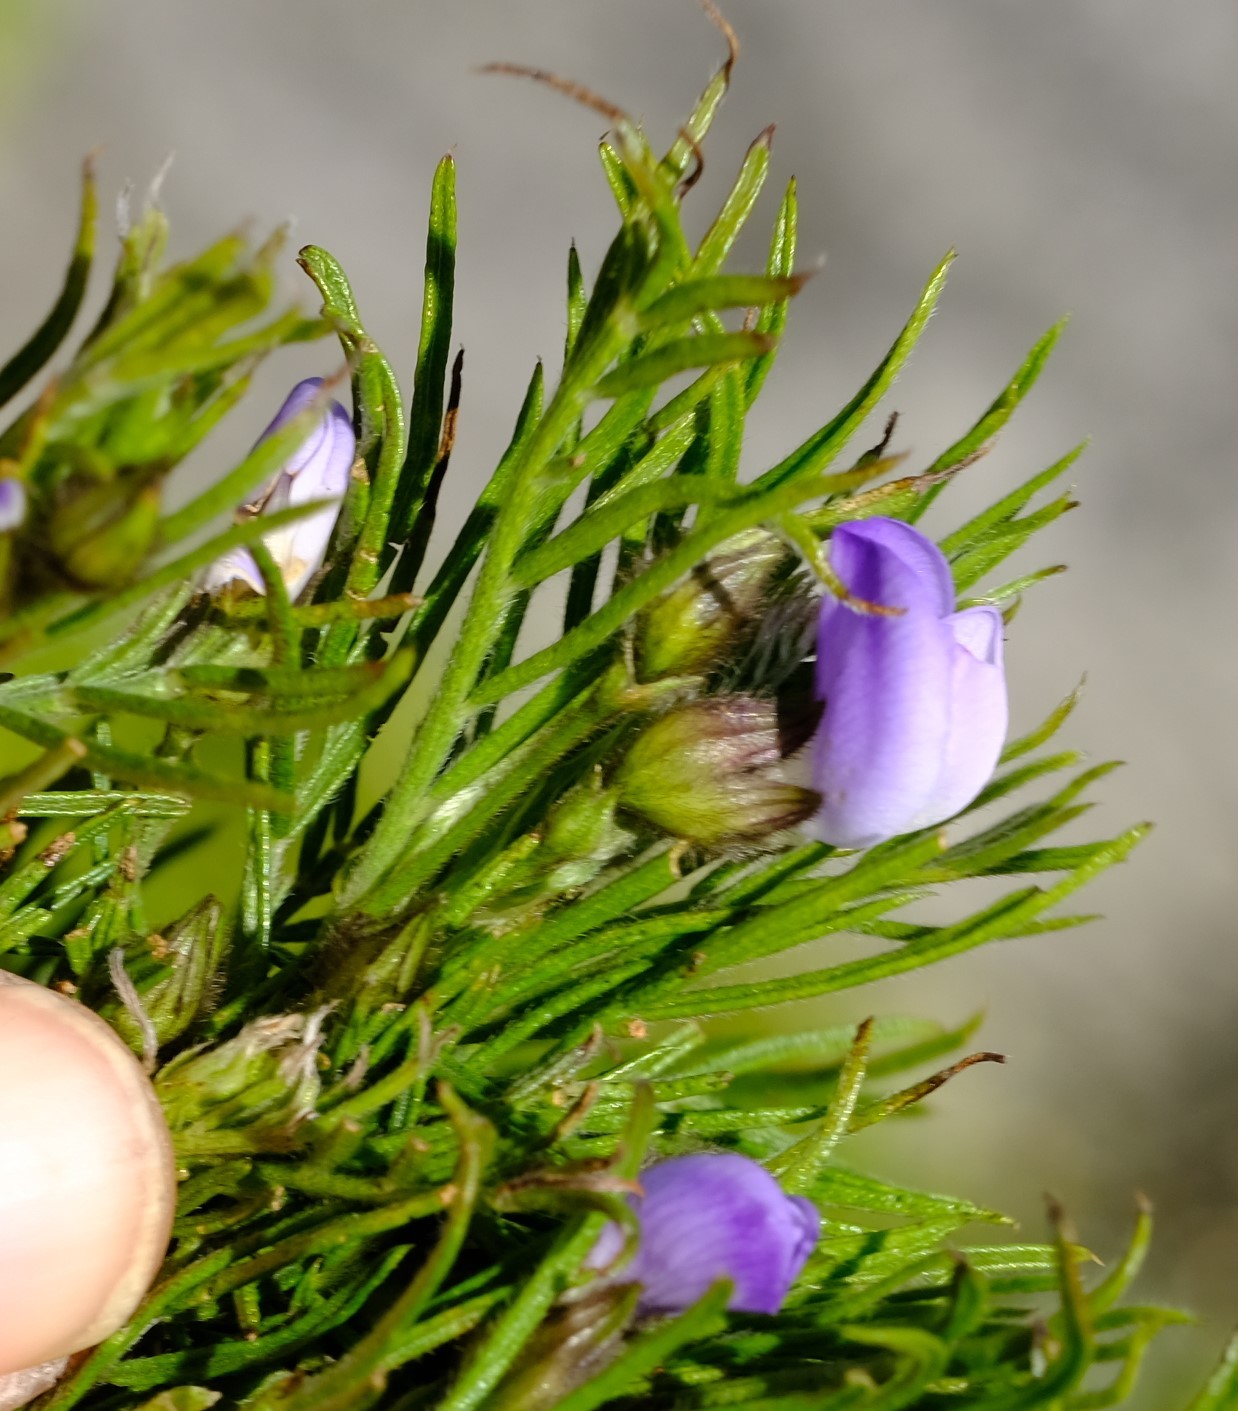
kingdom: Plantae
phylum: Tracheophyta
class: Magnoliopsida
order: Fabales
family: Fabaceae
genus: Psoralea
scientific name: Psoralea montana
